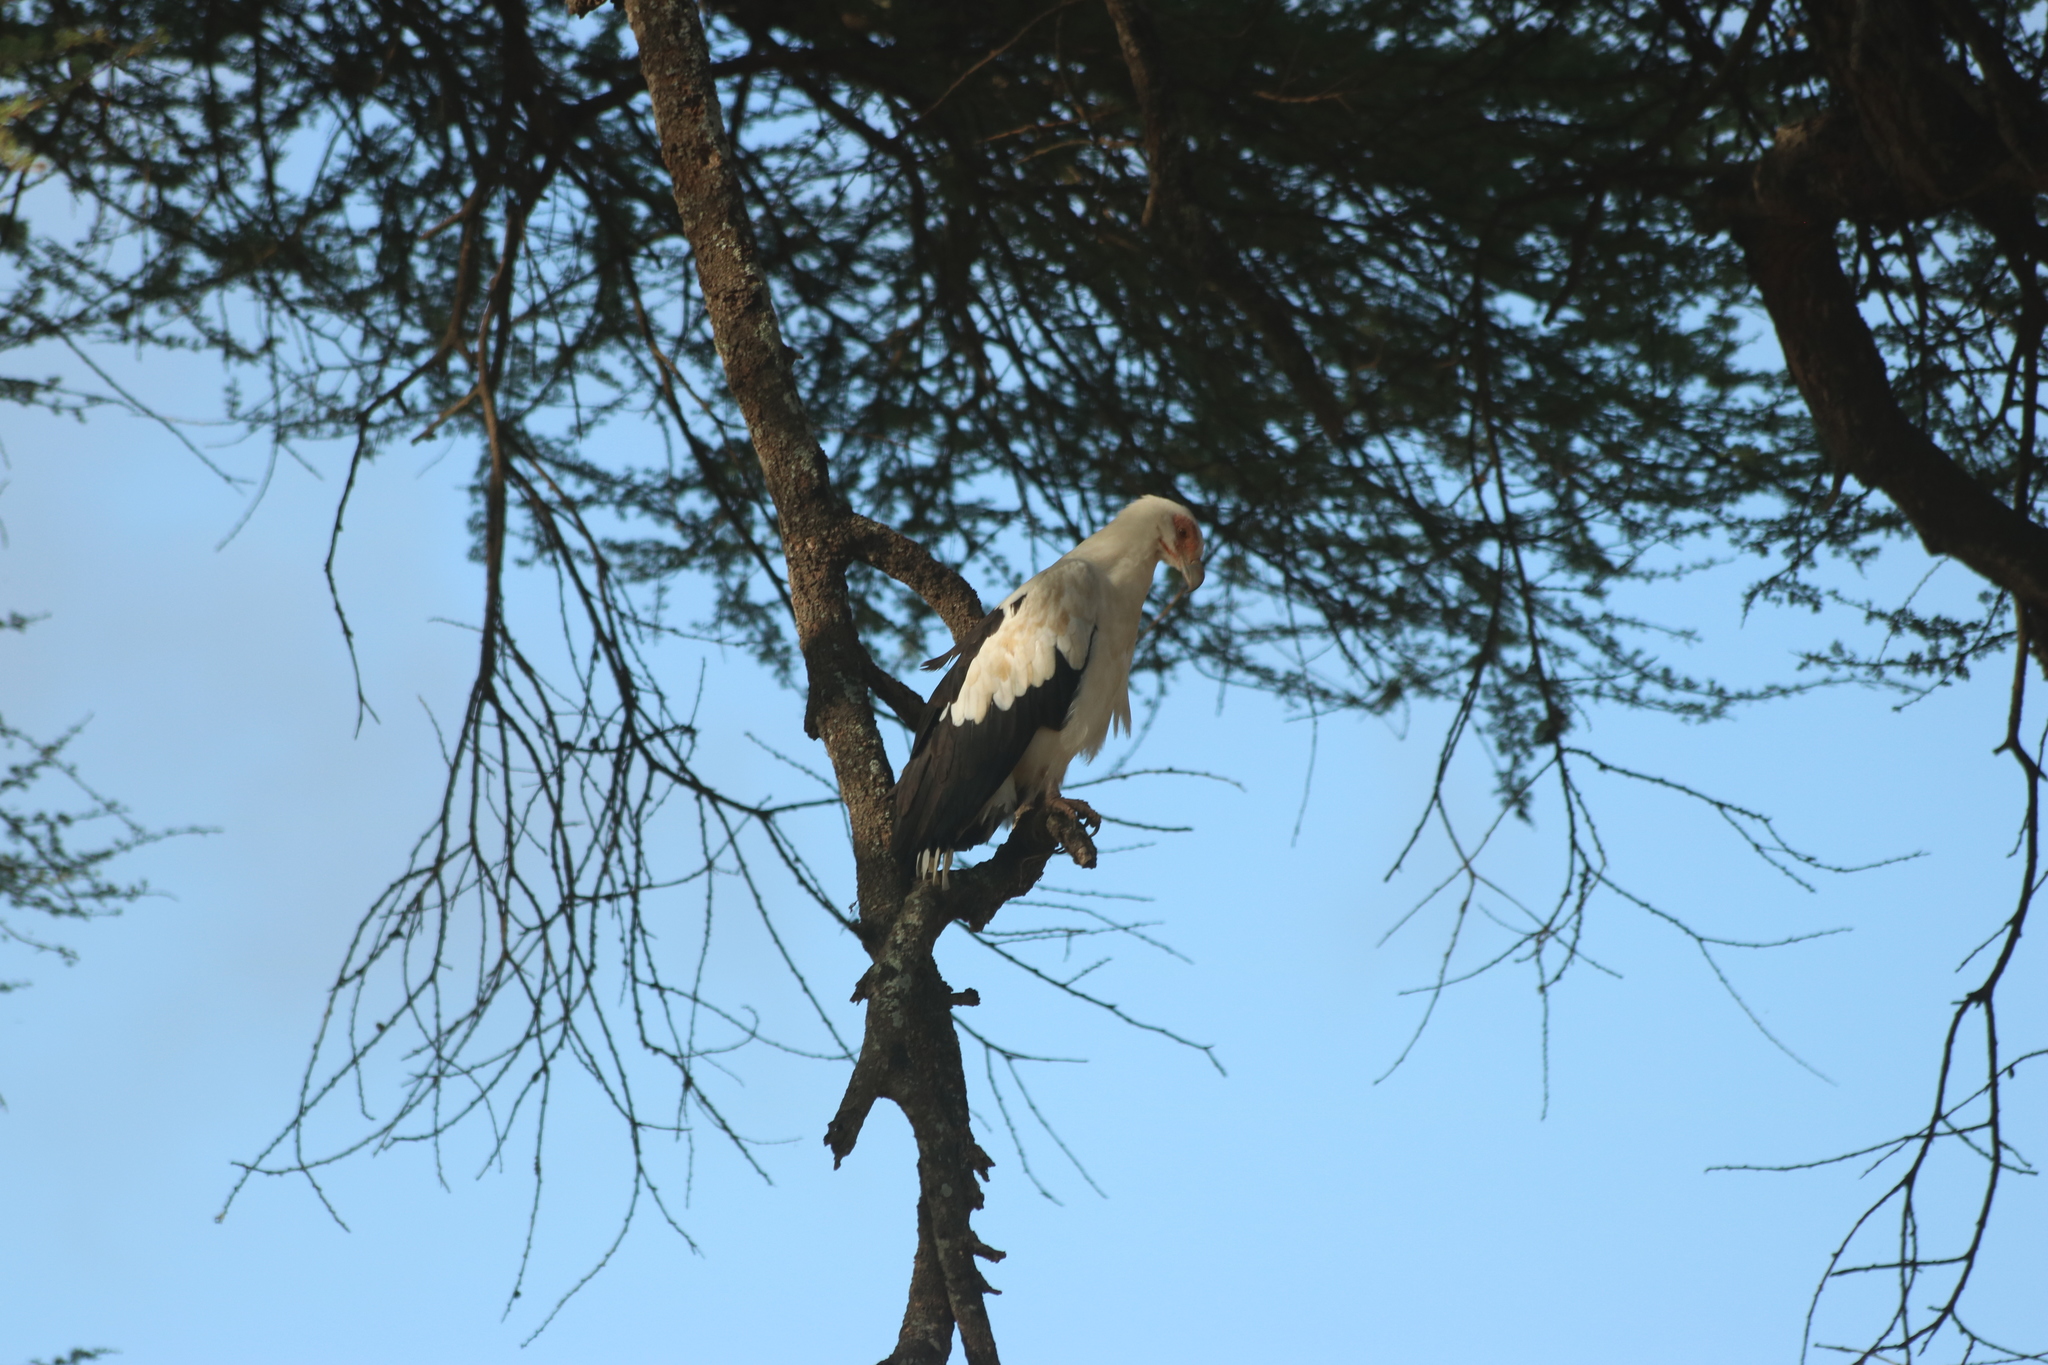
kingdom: Animalia
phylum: Chordata
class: Aves
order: Accipitriformes
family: Accipitridae
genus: Gypohierax
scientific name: Gypohierax angolensis
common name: Palm-nut vulture
